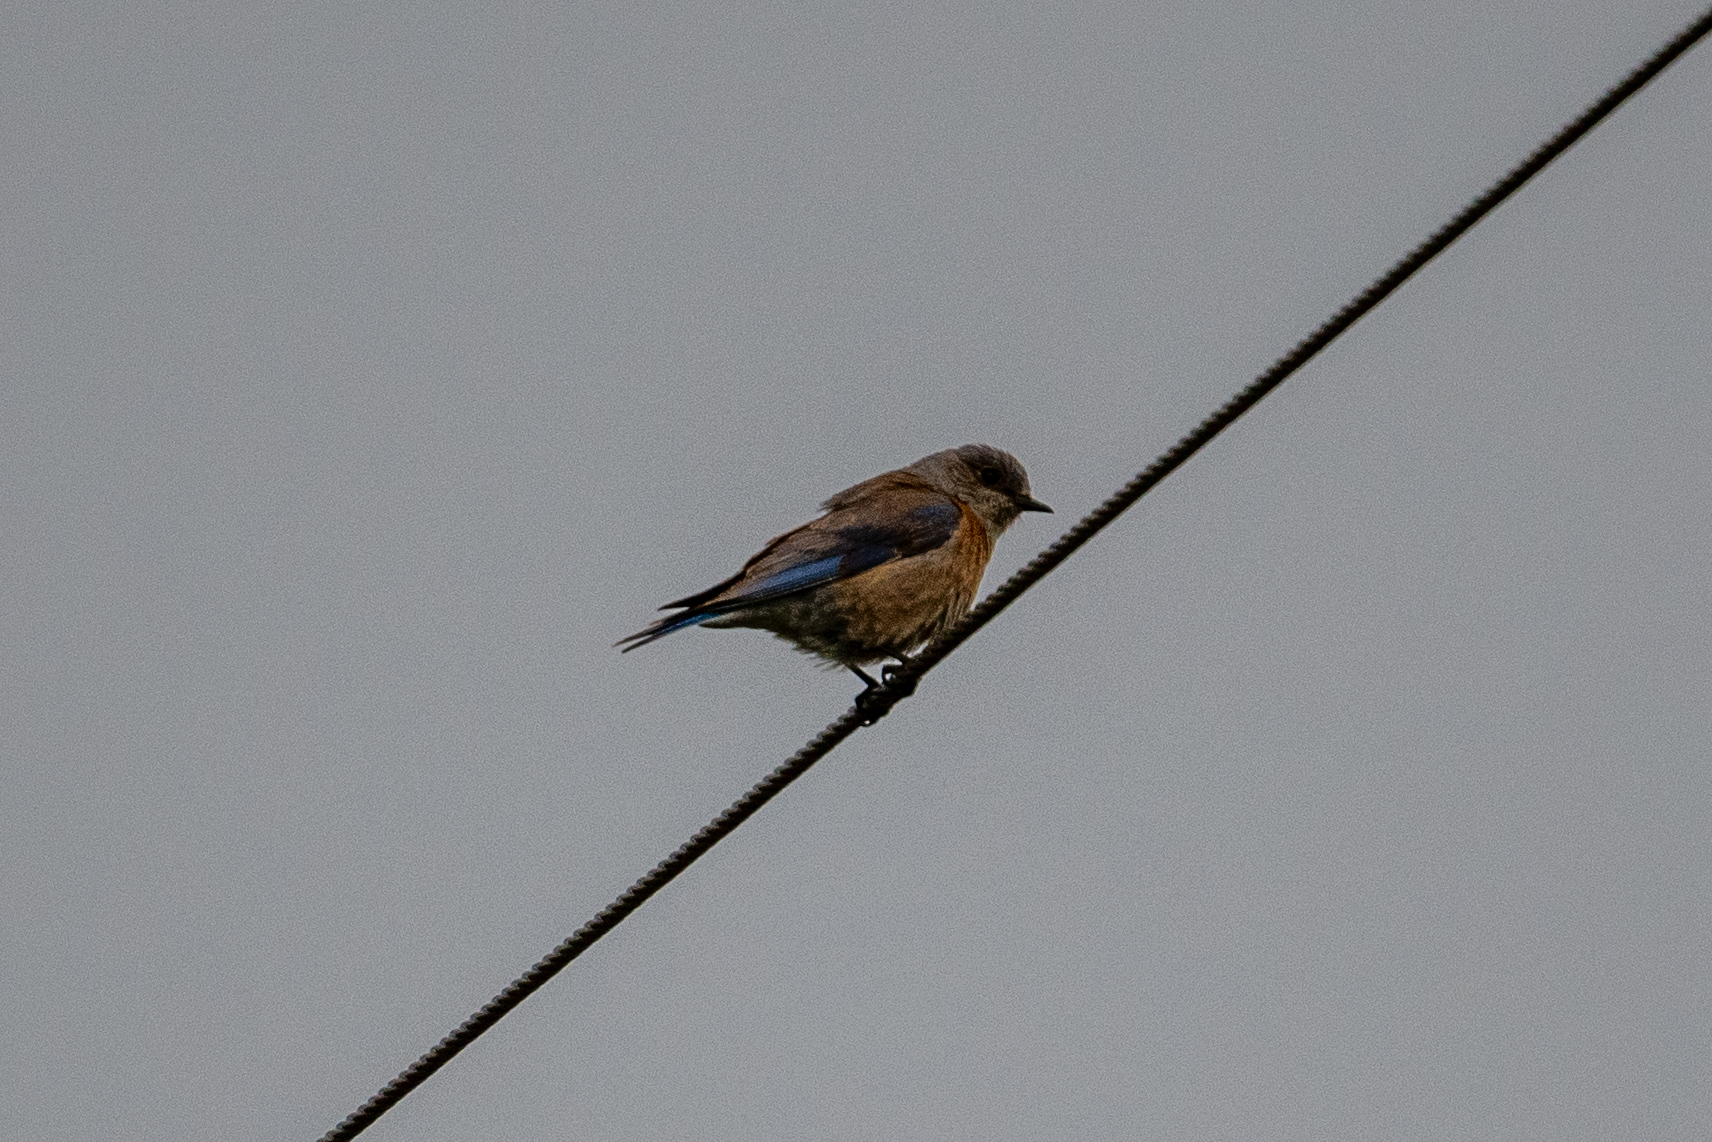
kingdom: Animalia
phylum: Chordata
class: Aves
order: Passeriformes
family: Turdidae
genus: Sialia
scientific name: Sialia mexicana
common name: Western bluebird
